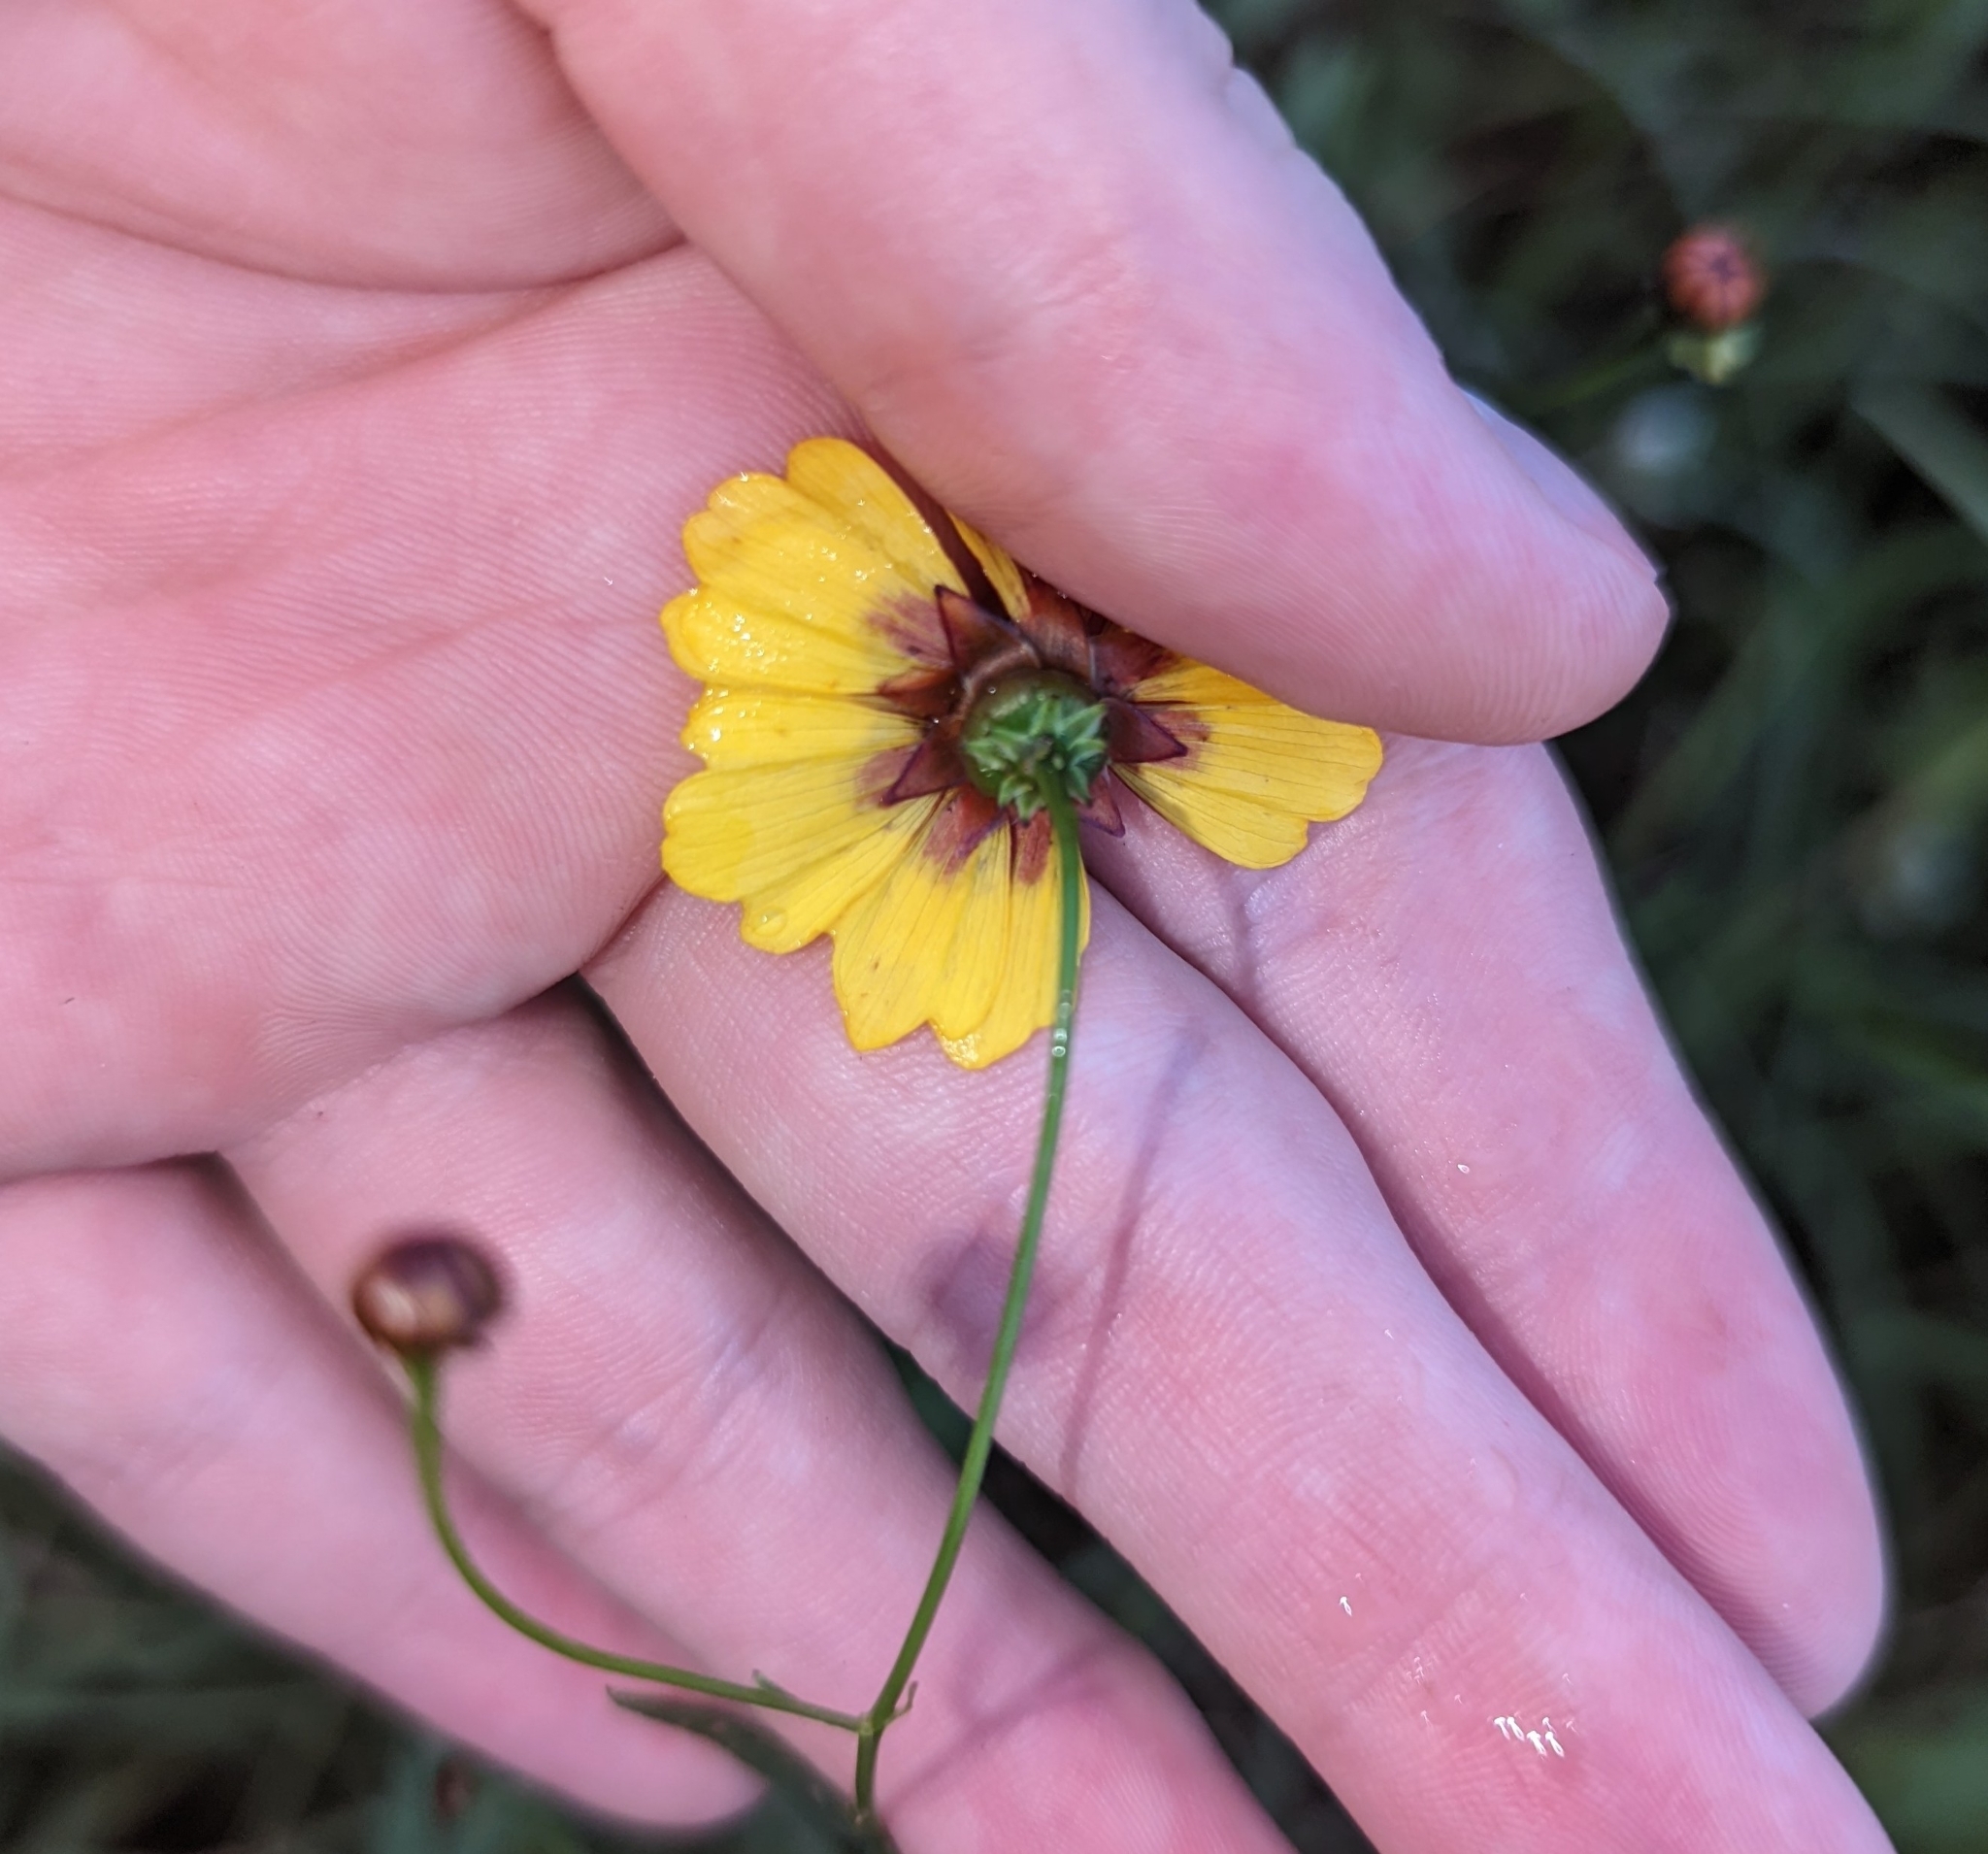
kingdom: Plantae
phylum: Tracheophyta
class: Magnoliopsida
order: Asterales
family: Asteraceae
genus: Coreopsis
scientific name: Coreopsis tinctoria
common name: Garden tickseed
